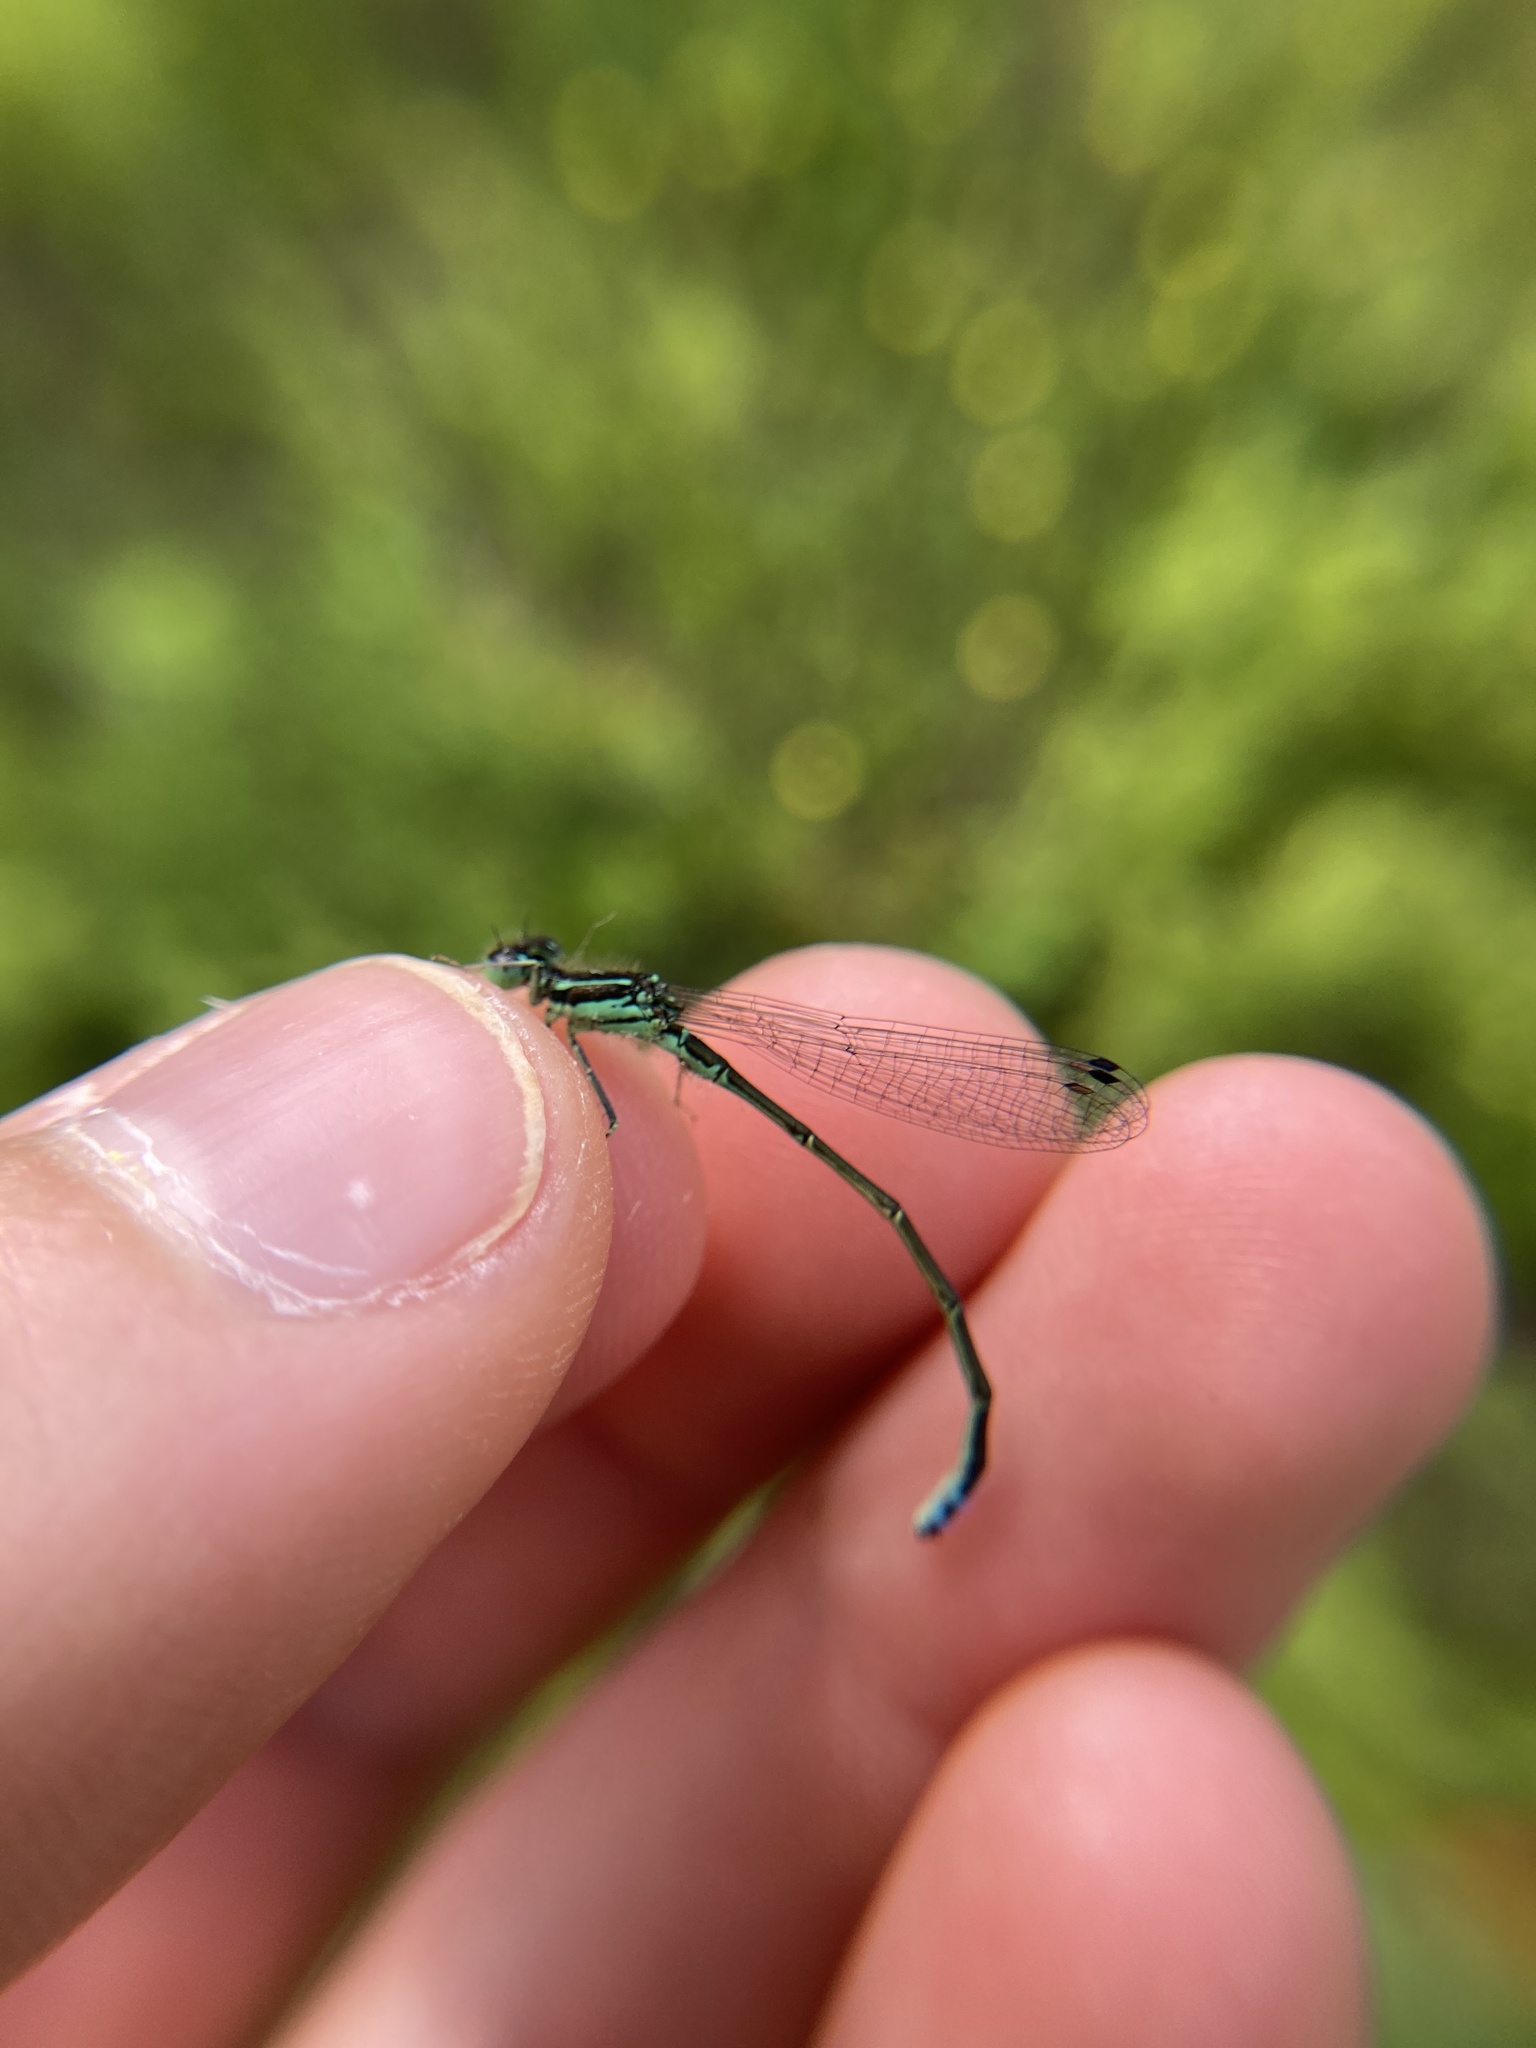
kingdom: Animalia
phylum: Arthropoda
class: Insecta
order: Odonata
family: Coenagrionidae
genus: Ischnura
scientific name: Ischnura verticalis
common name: Eastern forktail
